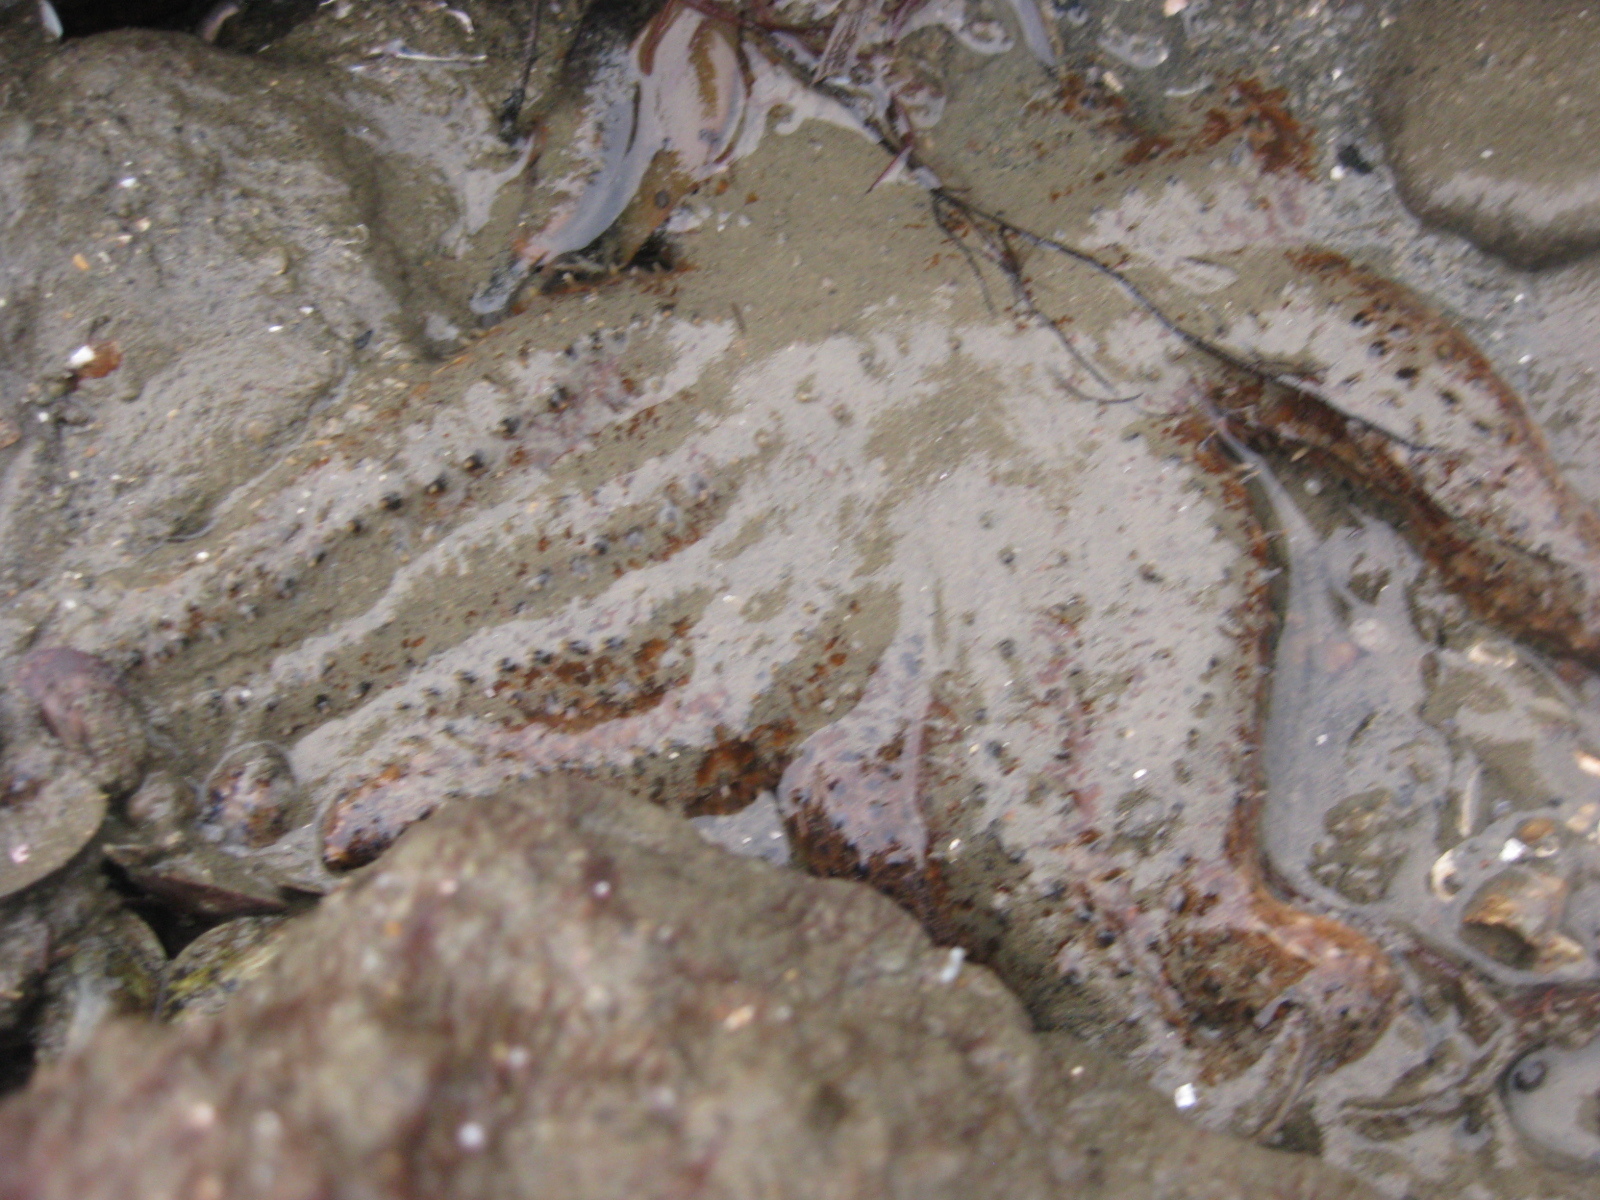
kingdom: Animalia
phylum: Echinodermata
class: Asteroidea
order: Forcipulatida
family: Asteriidae
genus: Coscinasterias
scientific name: Coscinasterias muricata
